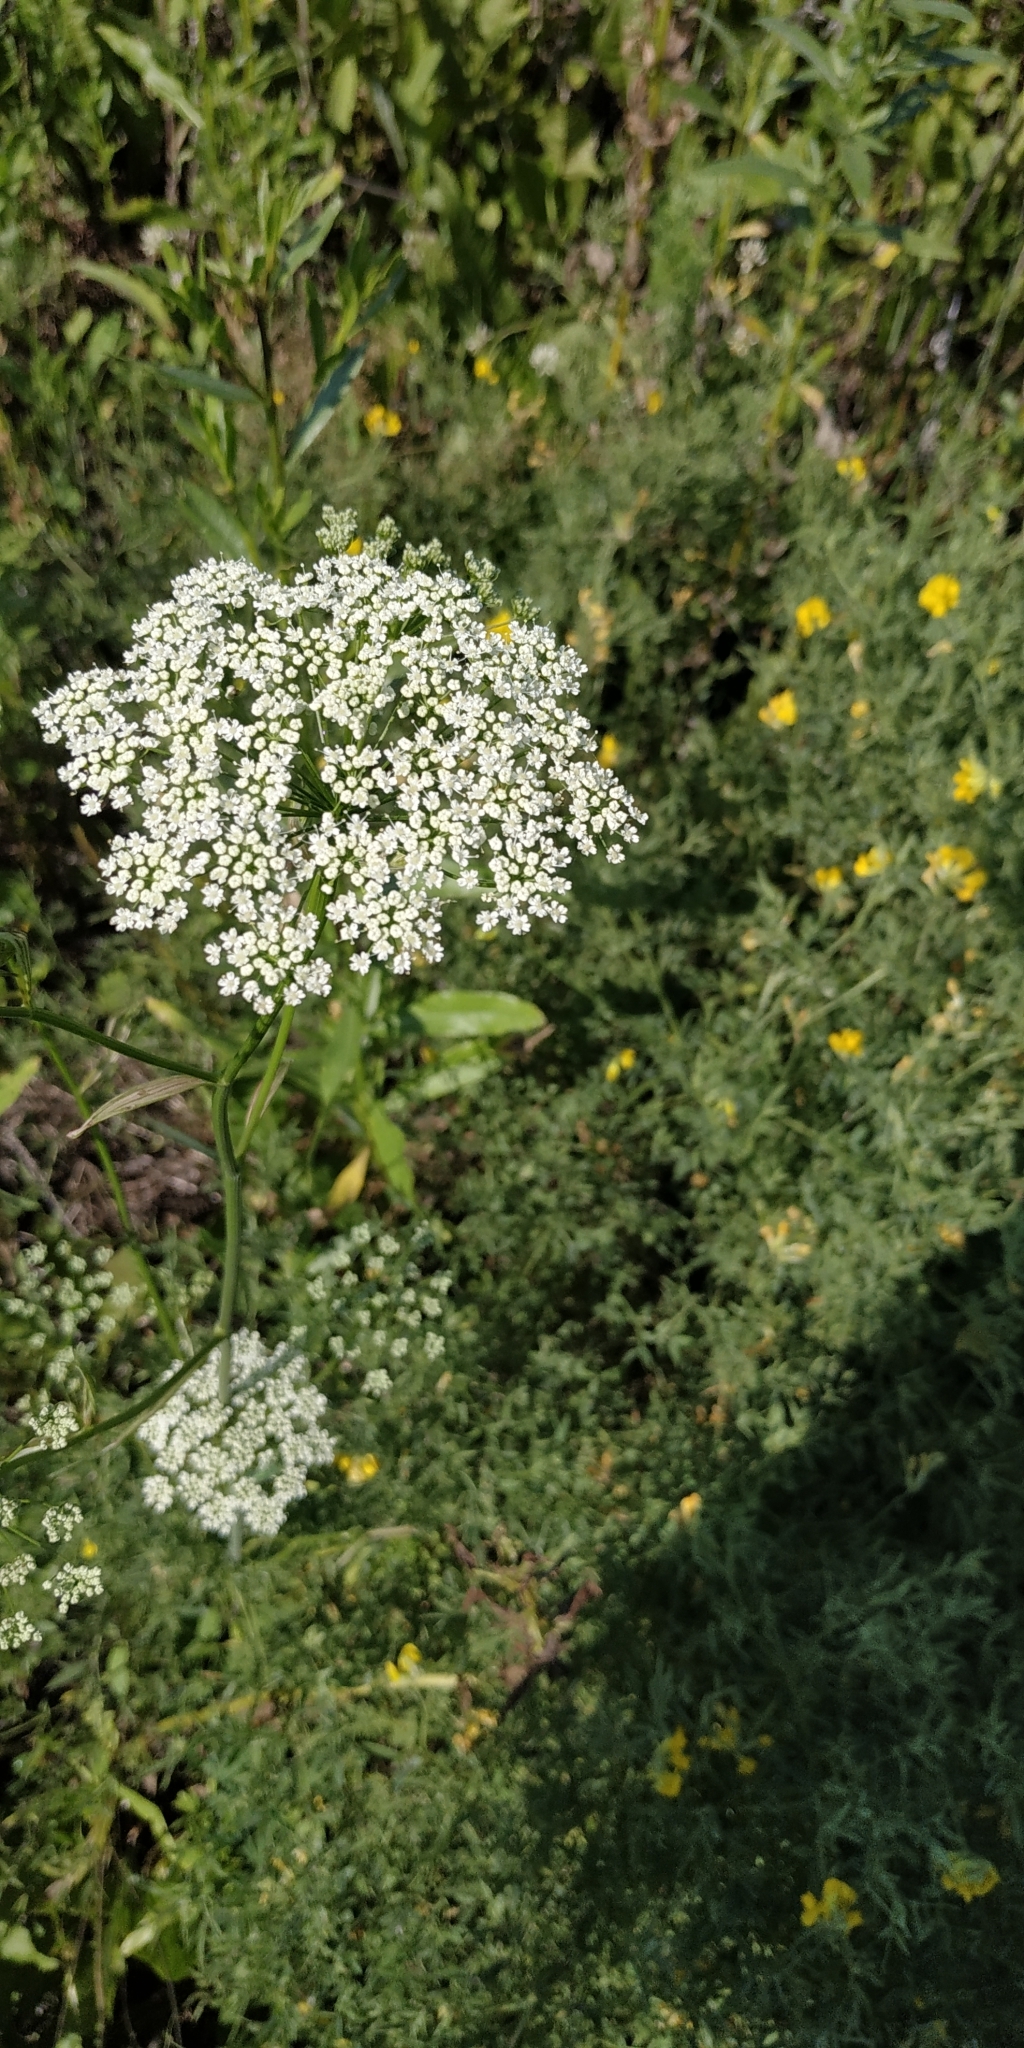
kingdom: Plantae
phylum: Tracheophyta
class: Magnoliopsida
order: Apiales
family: Apiaceae
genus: Pimpinella
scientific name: Pimpinella saxifraga
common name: Burnet-saxifrage
